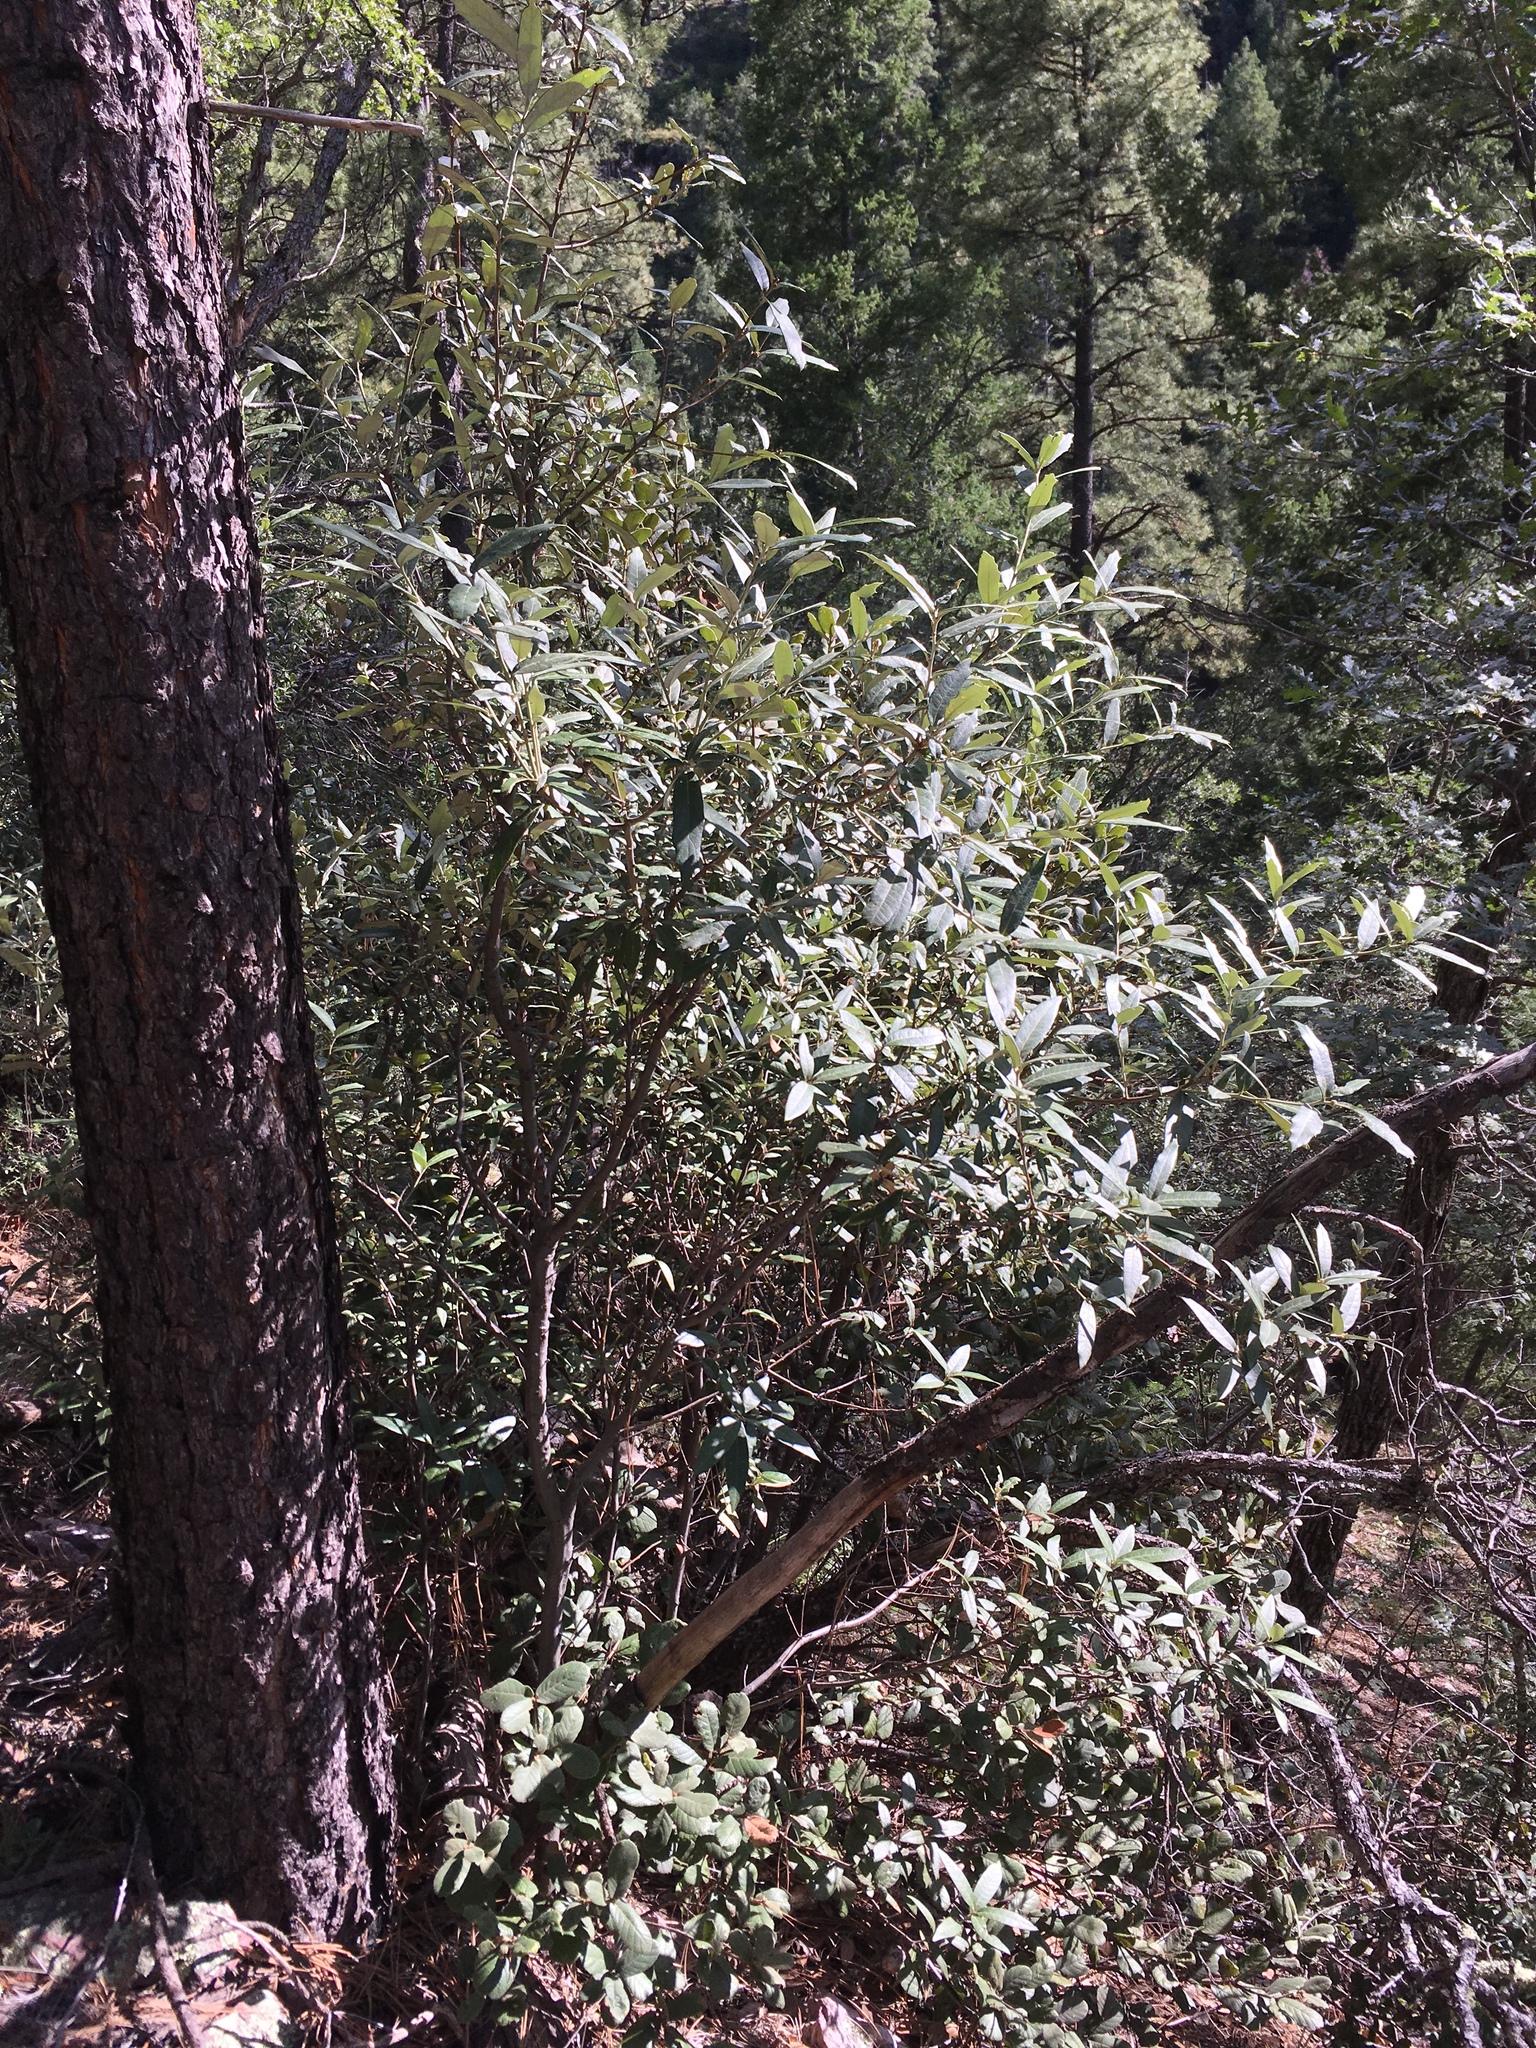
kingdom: Plantae
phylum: Tracheophyta
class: Magnoliopsida
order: Fagales
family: Fagaceae
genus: Quercus
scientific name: Quercus hypoleucoides
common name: Silverleaf oak
